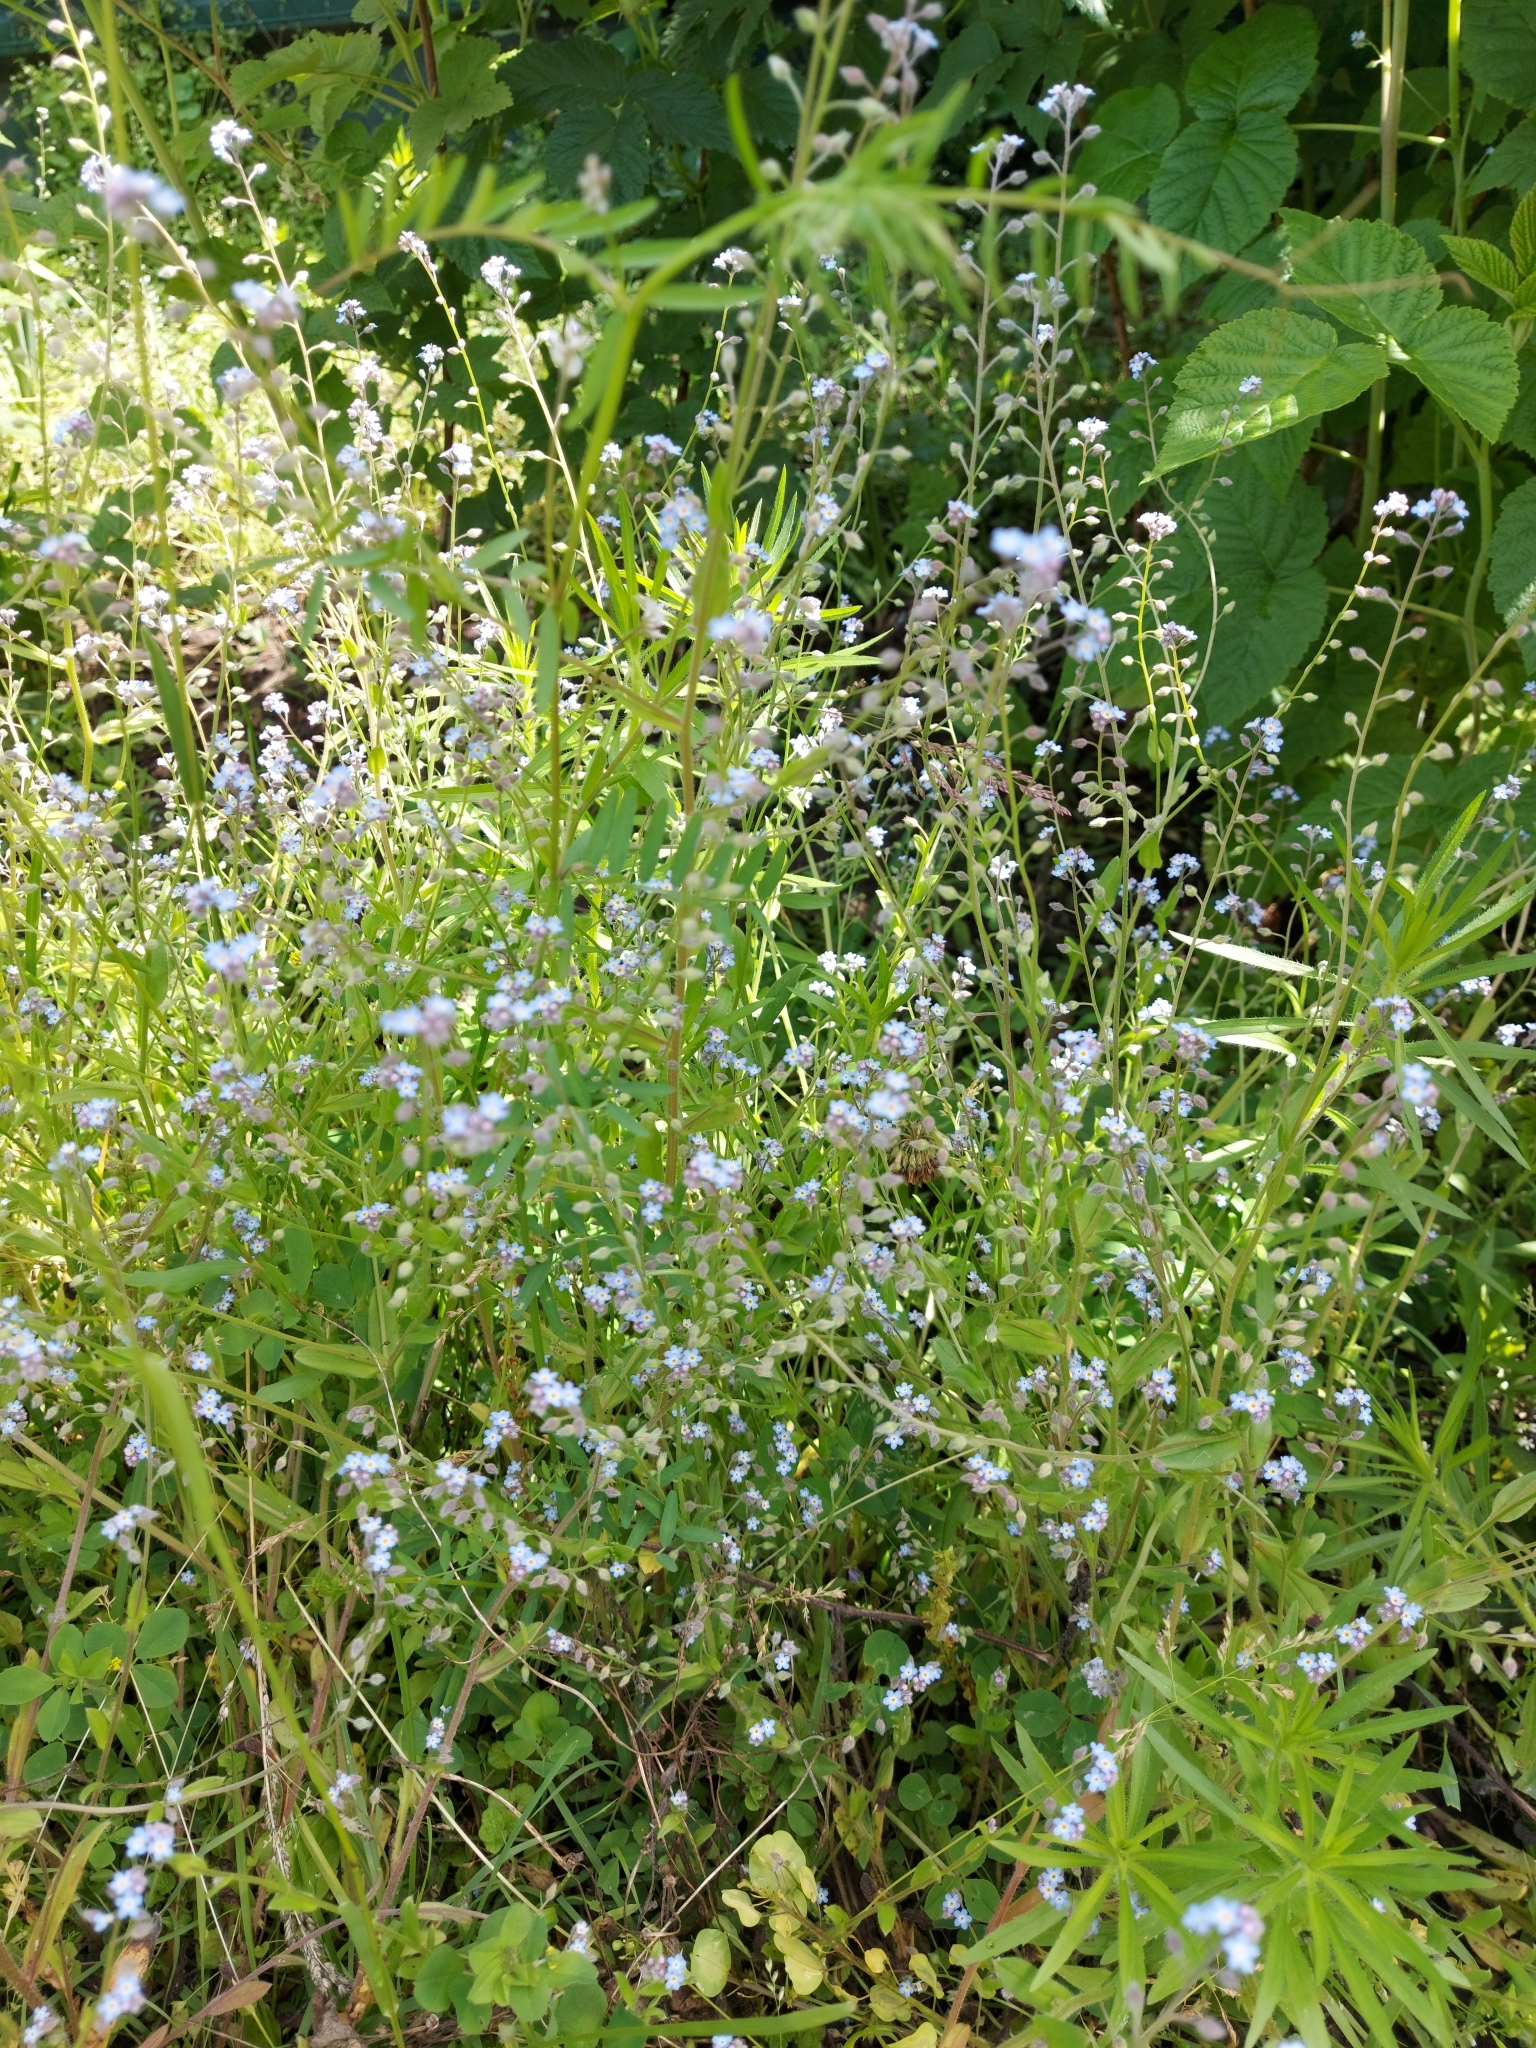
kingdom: Plantae
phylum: Tracheophyta
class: Magnoliopsida
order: Boraginales
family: Boraginaceae
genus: Myosotis
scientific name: Myosotis arvensis
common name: Field forget-me-not
